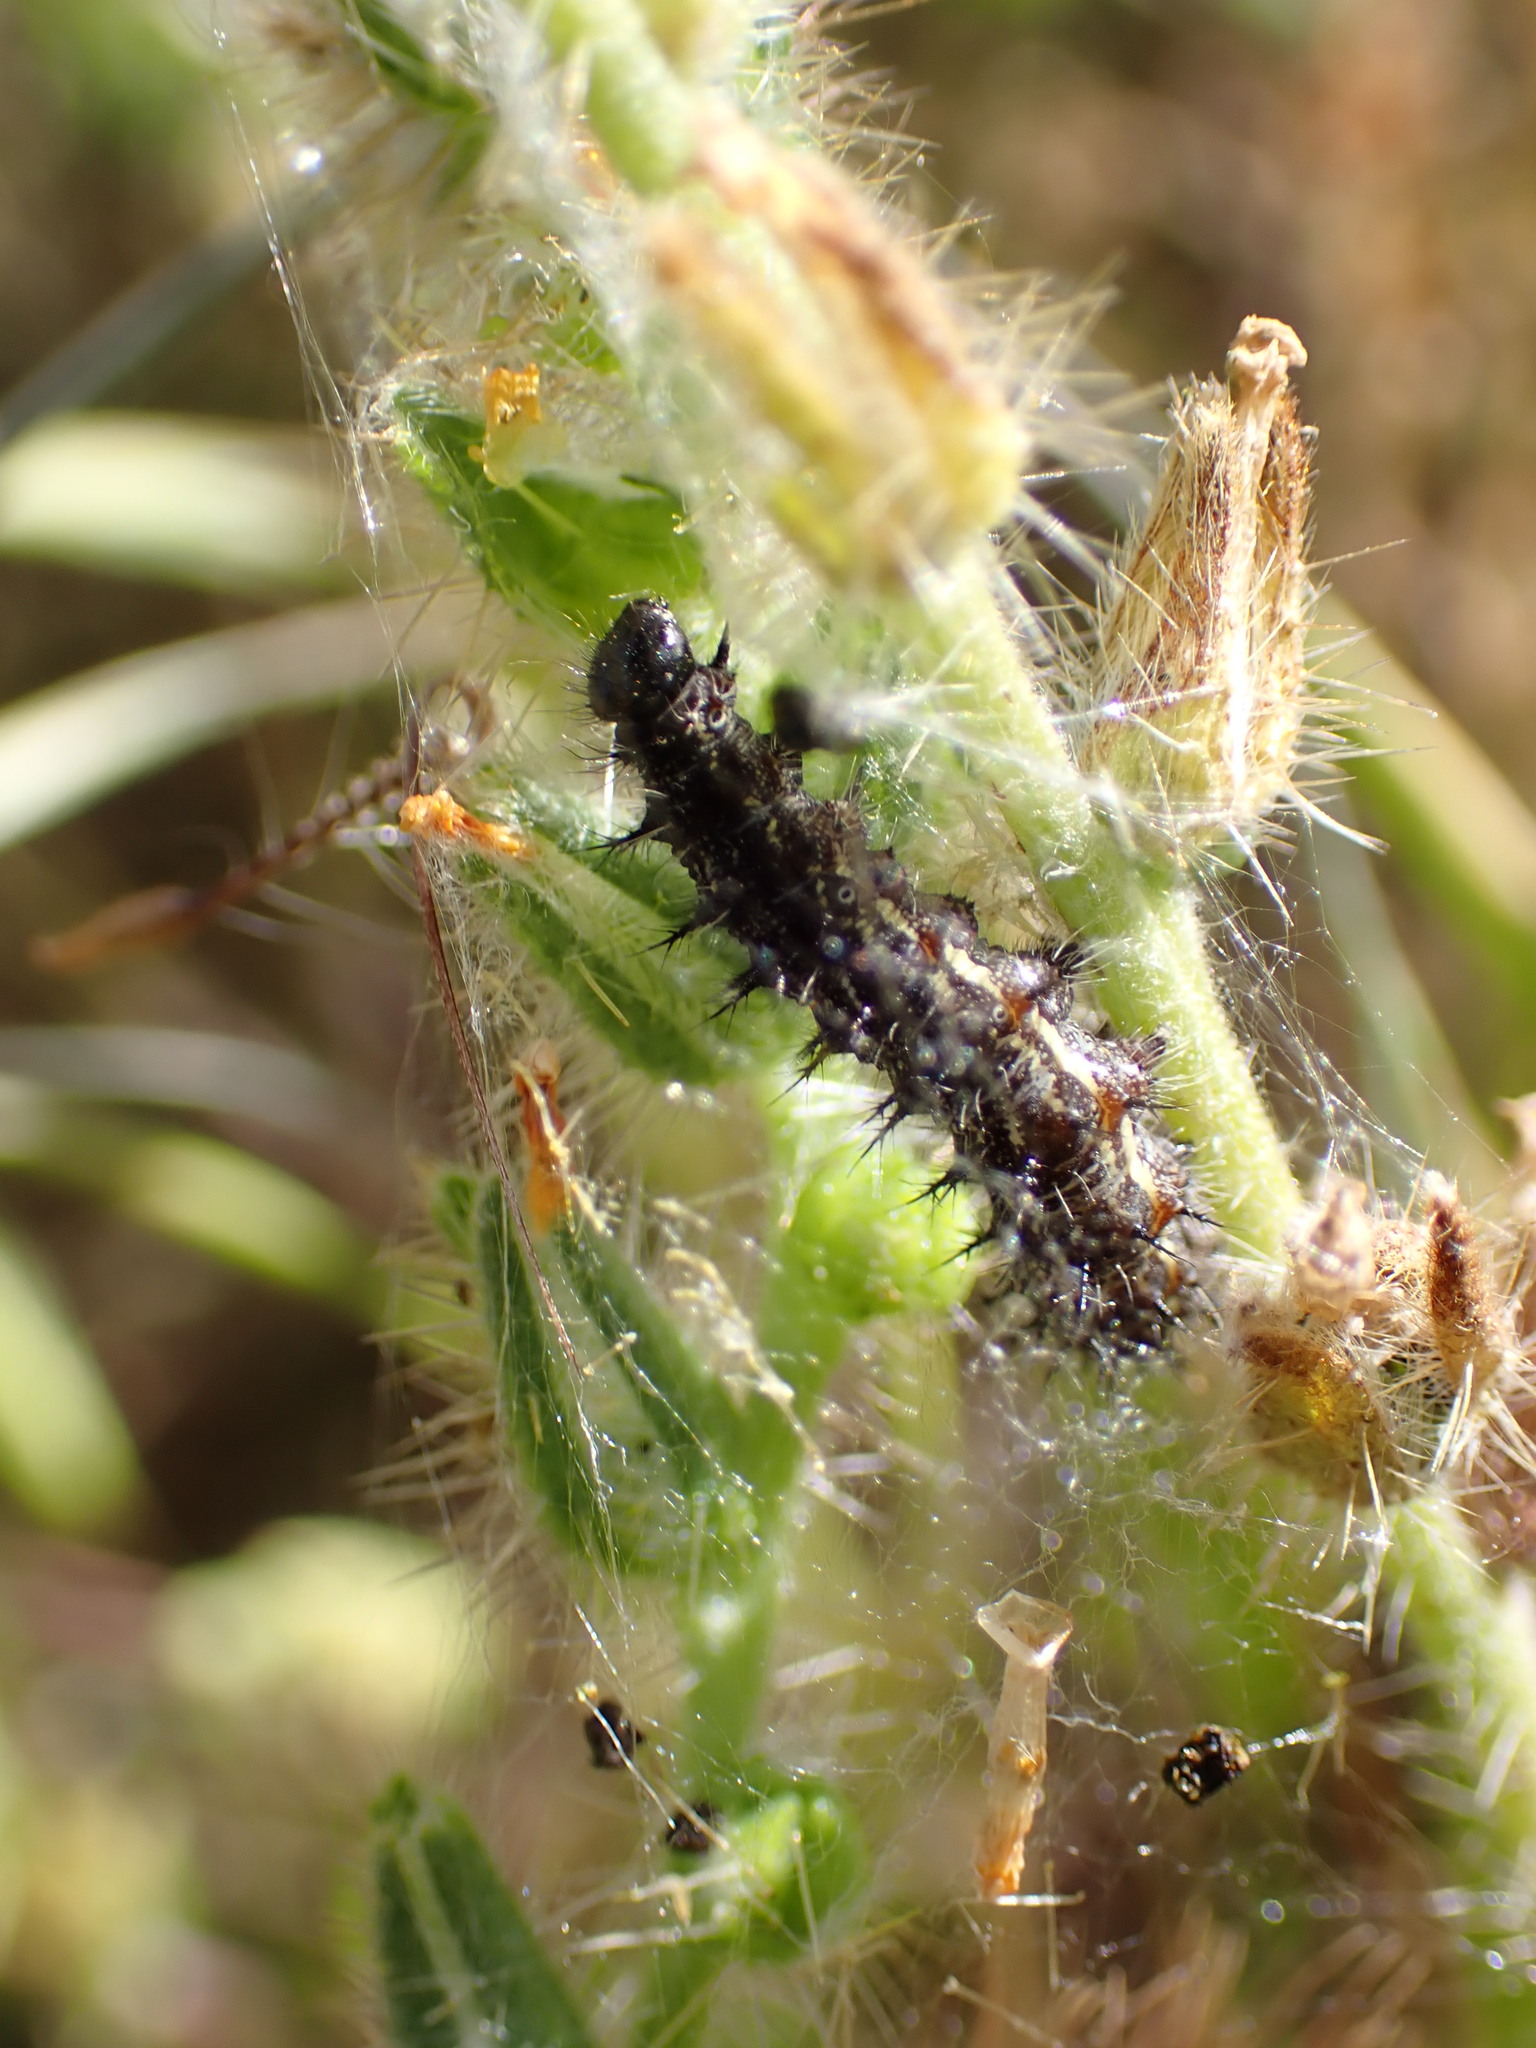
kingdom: Animalia
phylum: Arthropoda
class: Insecta
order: Lepidoptera
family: Nymphalidae
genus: Vanessa
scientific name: Vanessa cardui
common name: Painted lady
